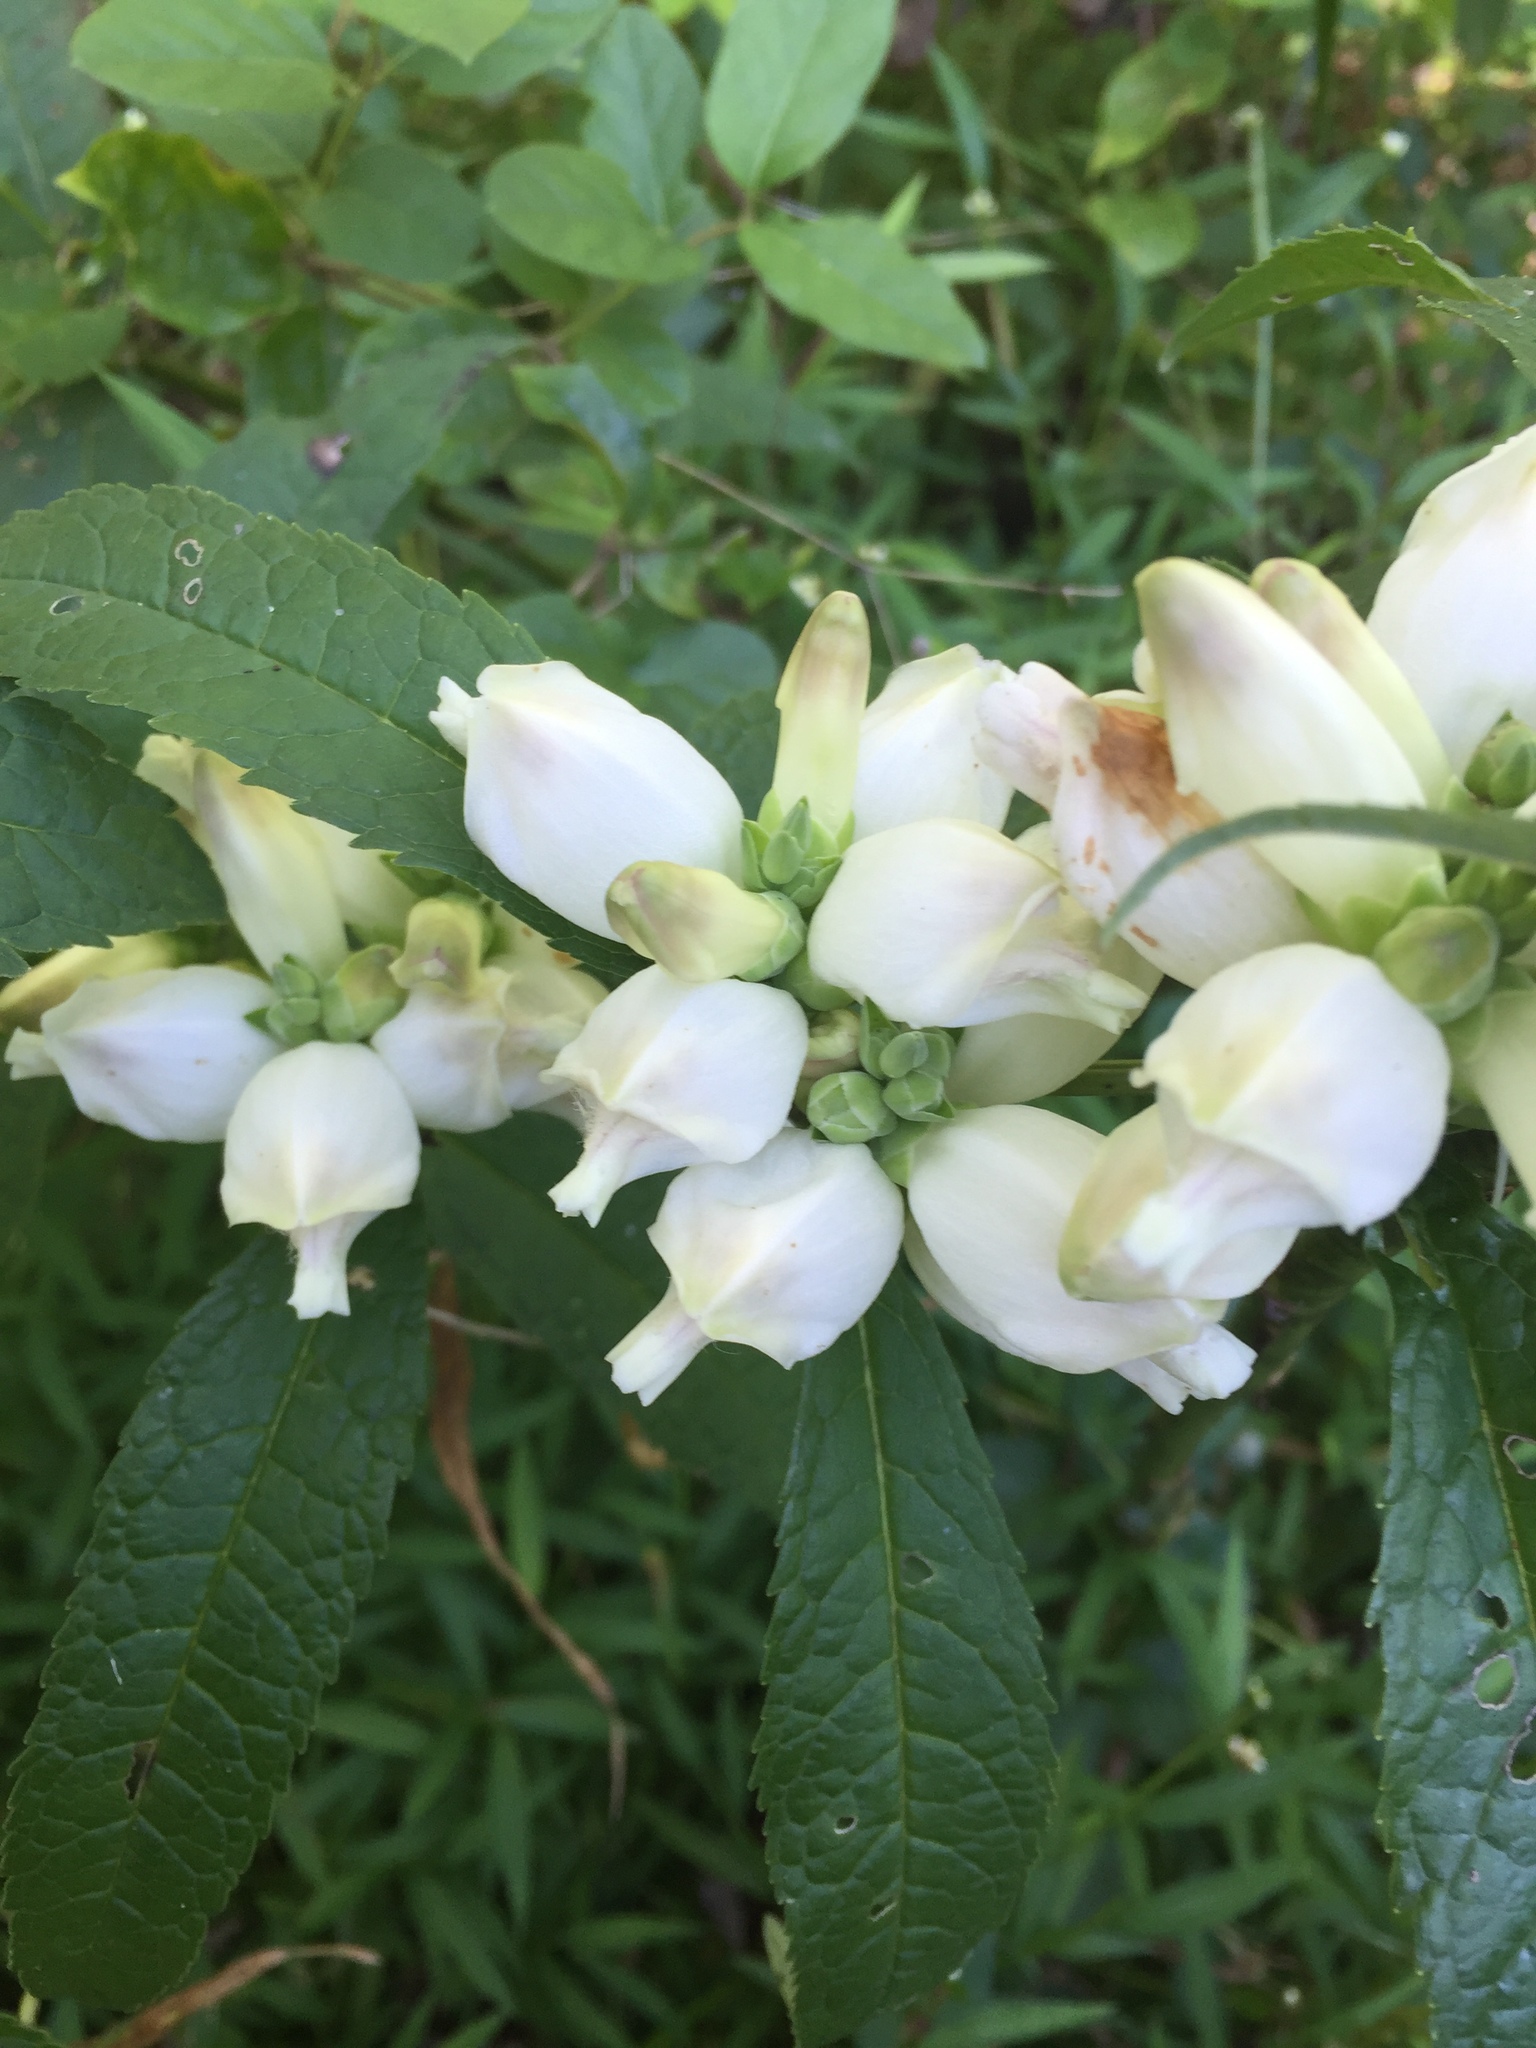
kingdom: Plantae
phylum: Tracheophyta
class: Magnoliopsida
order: Lamiales
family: Plantaginaceae
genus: Chelone
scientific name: Chelone glabra
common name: Snakehead
